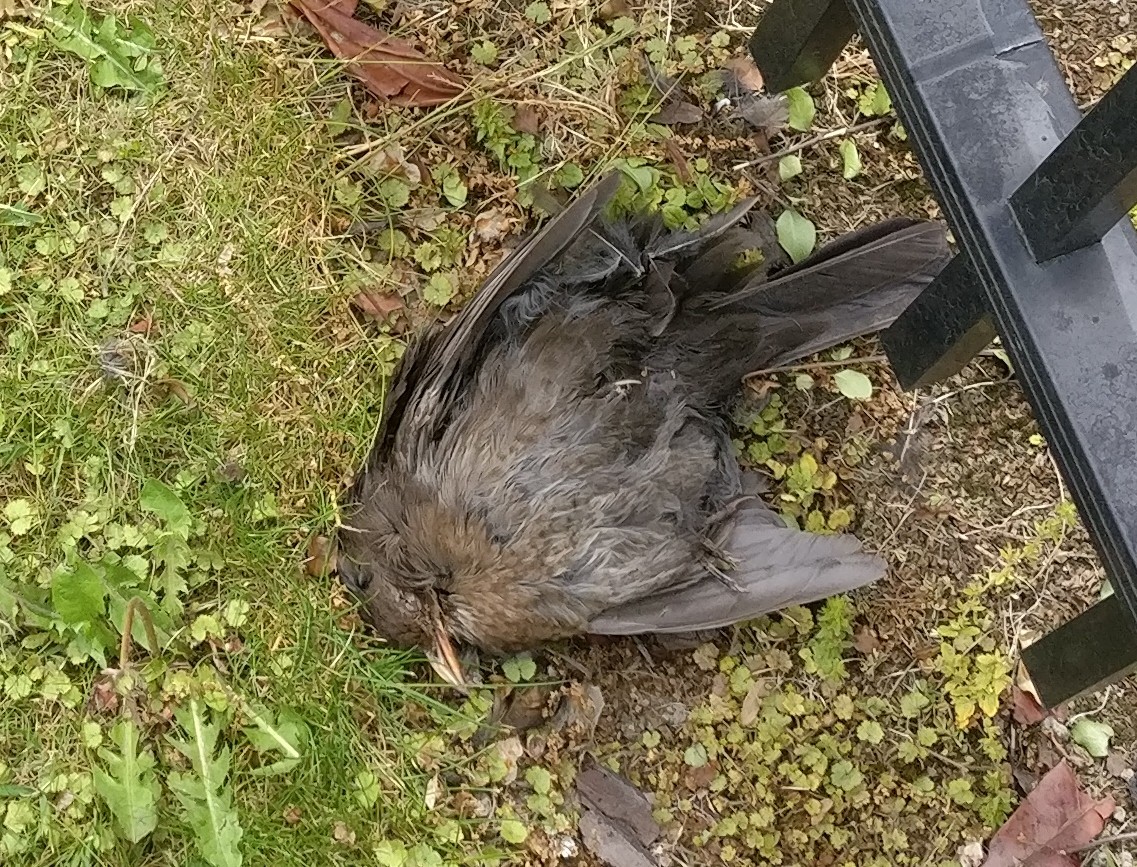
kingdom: Animalia
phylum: Chordata
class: Aves
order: Passeriformes
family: Turdidae
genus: Turdus
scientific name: Turdus merula
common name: Common blackbird
